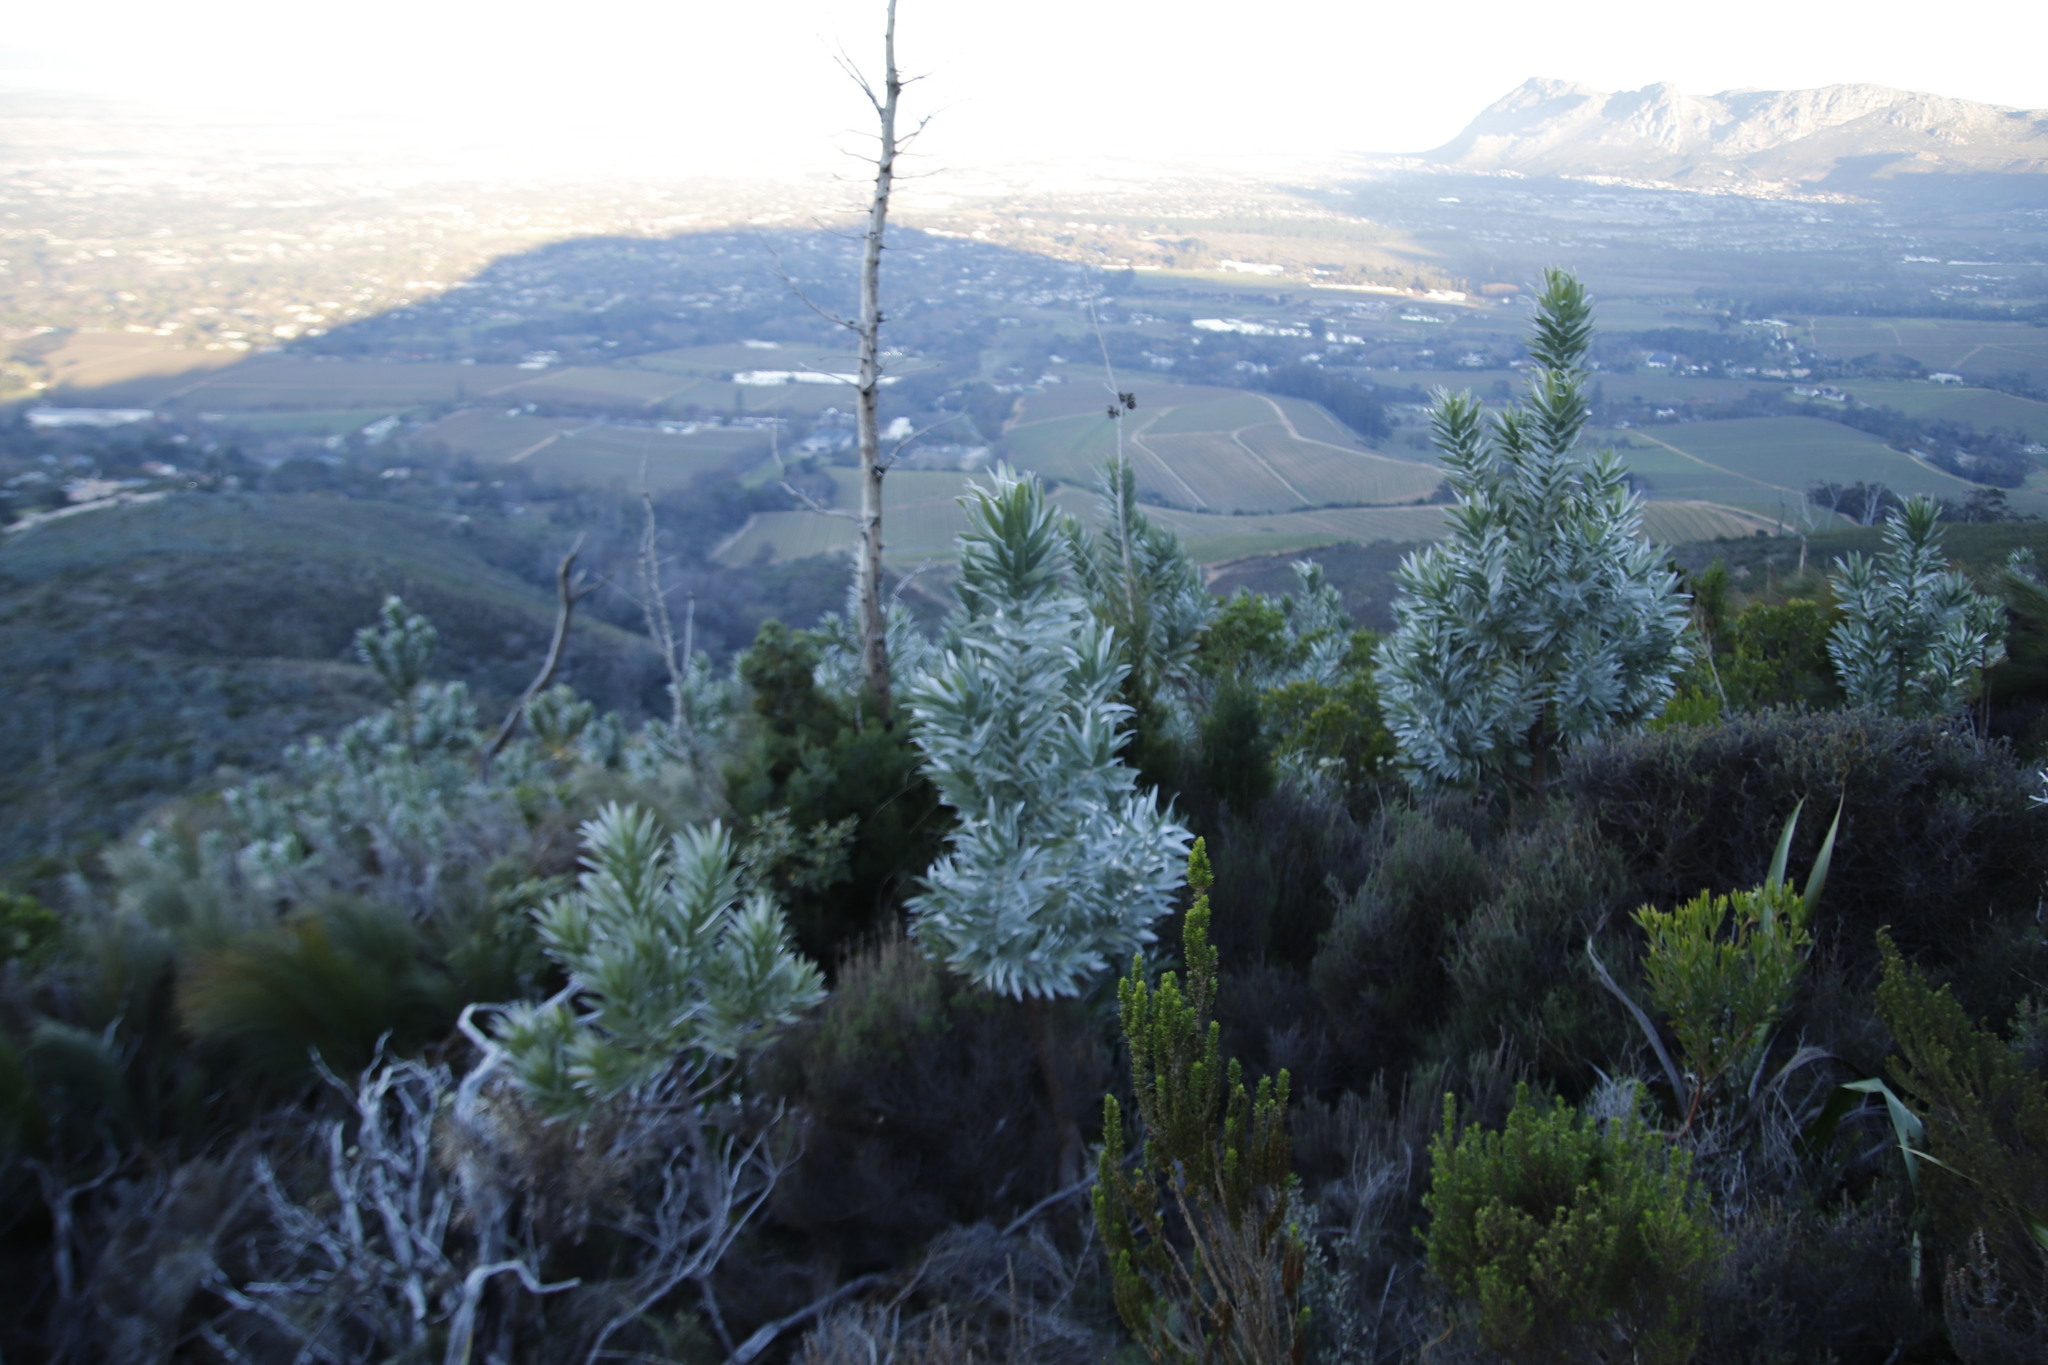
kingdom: Plantae
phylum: Tracheophyta
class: Magnoliopsida
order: Proteales
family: Proteaceae
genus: Leucadendron
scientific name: Leucadendron argenteum
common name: Cape silver tree
